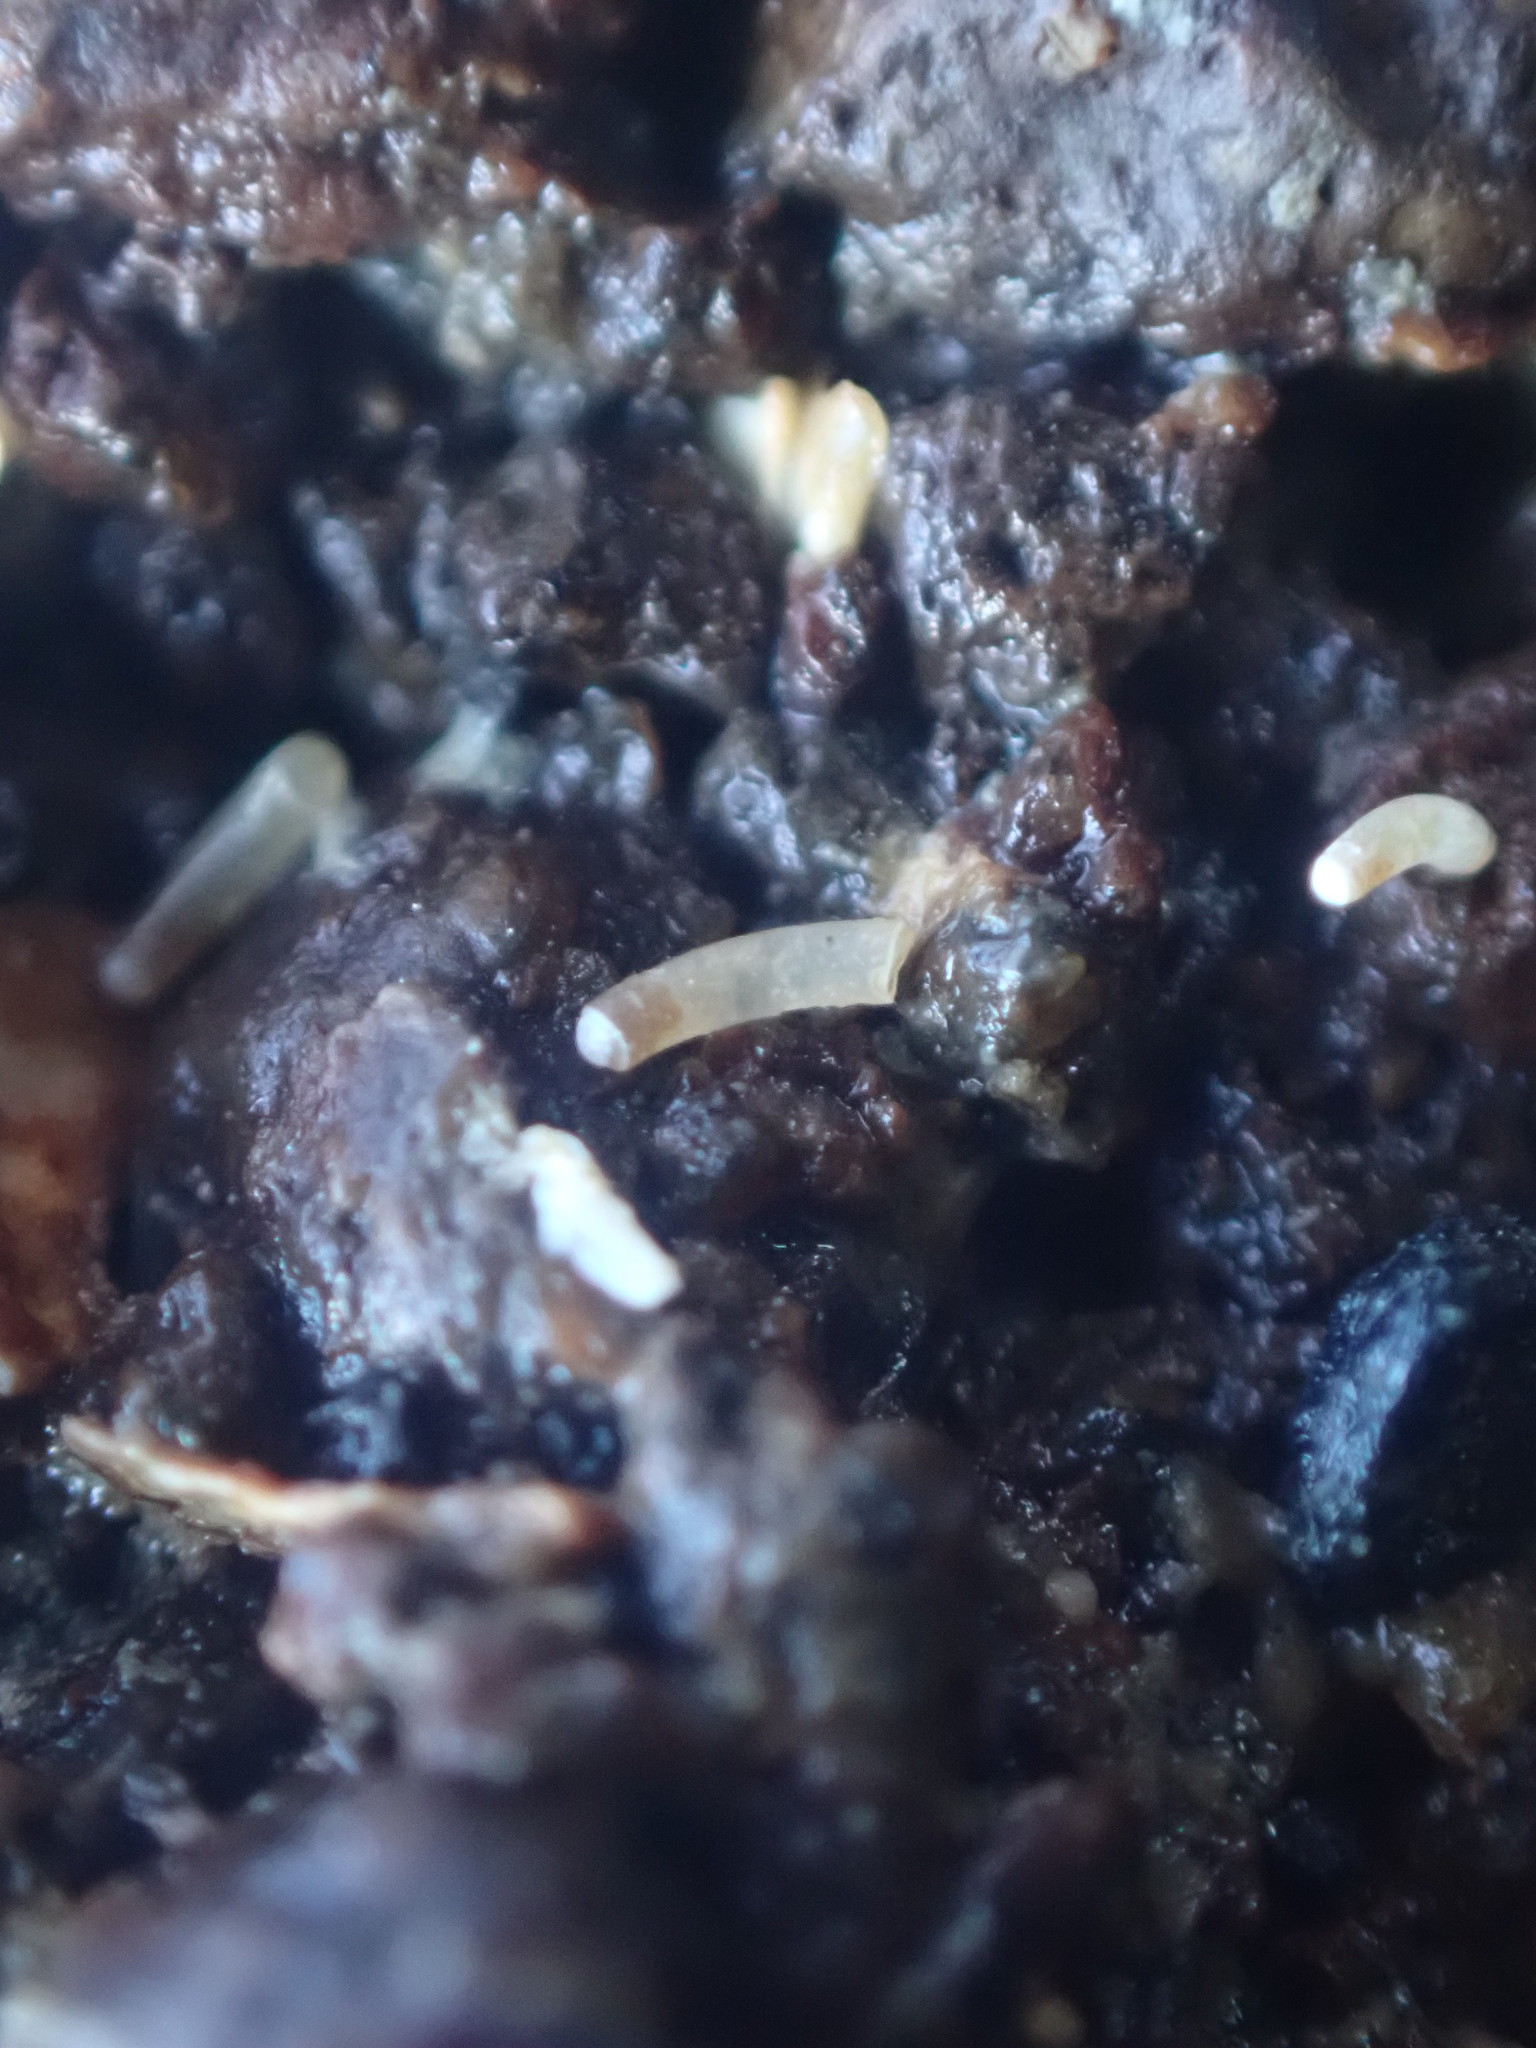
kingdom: Animalia
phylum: Mollusca
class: Gastropoda
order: Littorinimorpha
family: Caecidae
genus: Caecum
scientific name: Caecum
